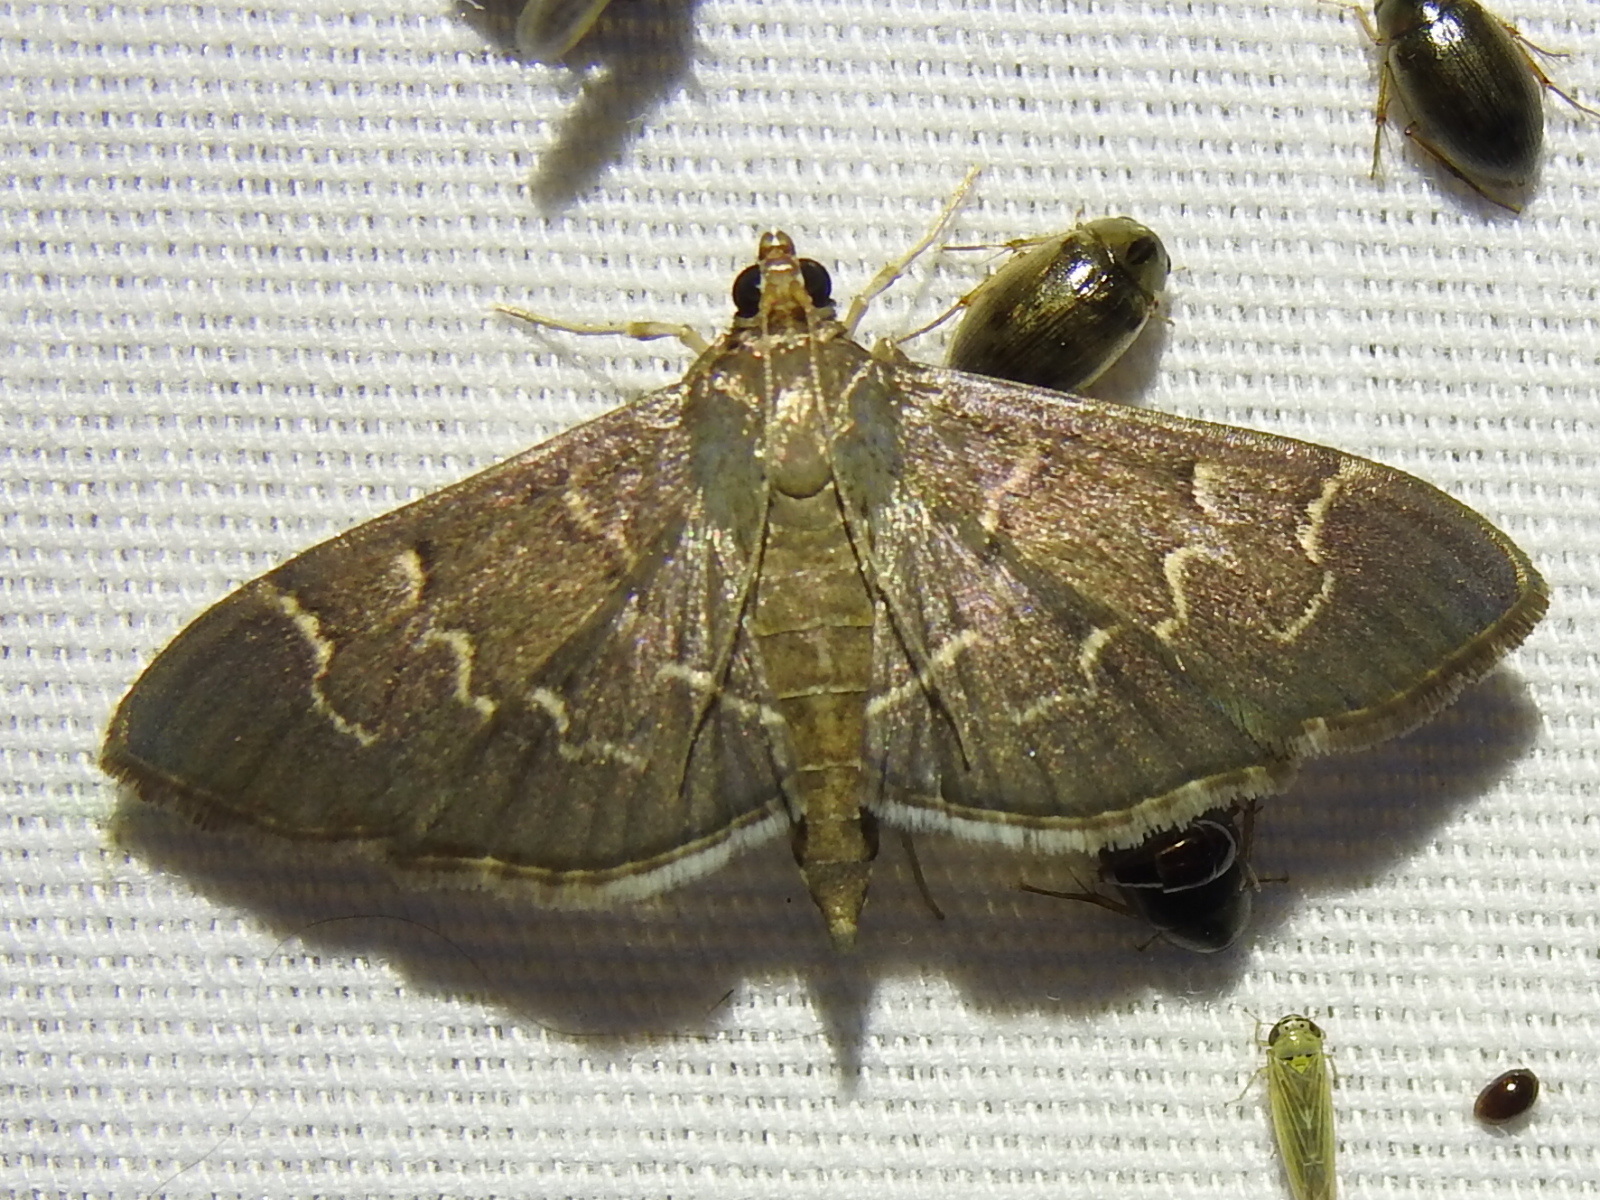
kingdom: Animalia
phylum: Arthropoda
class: Insecta
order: Lepidoptera
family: Crambidae
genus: Pilocrocis
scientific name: Pilocrocis ramentalis
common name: Scraped pilocrocis
